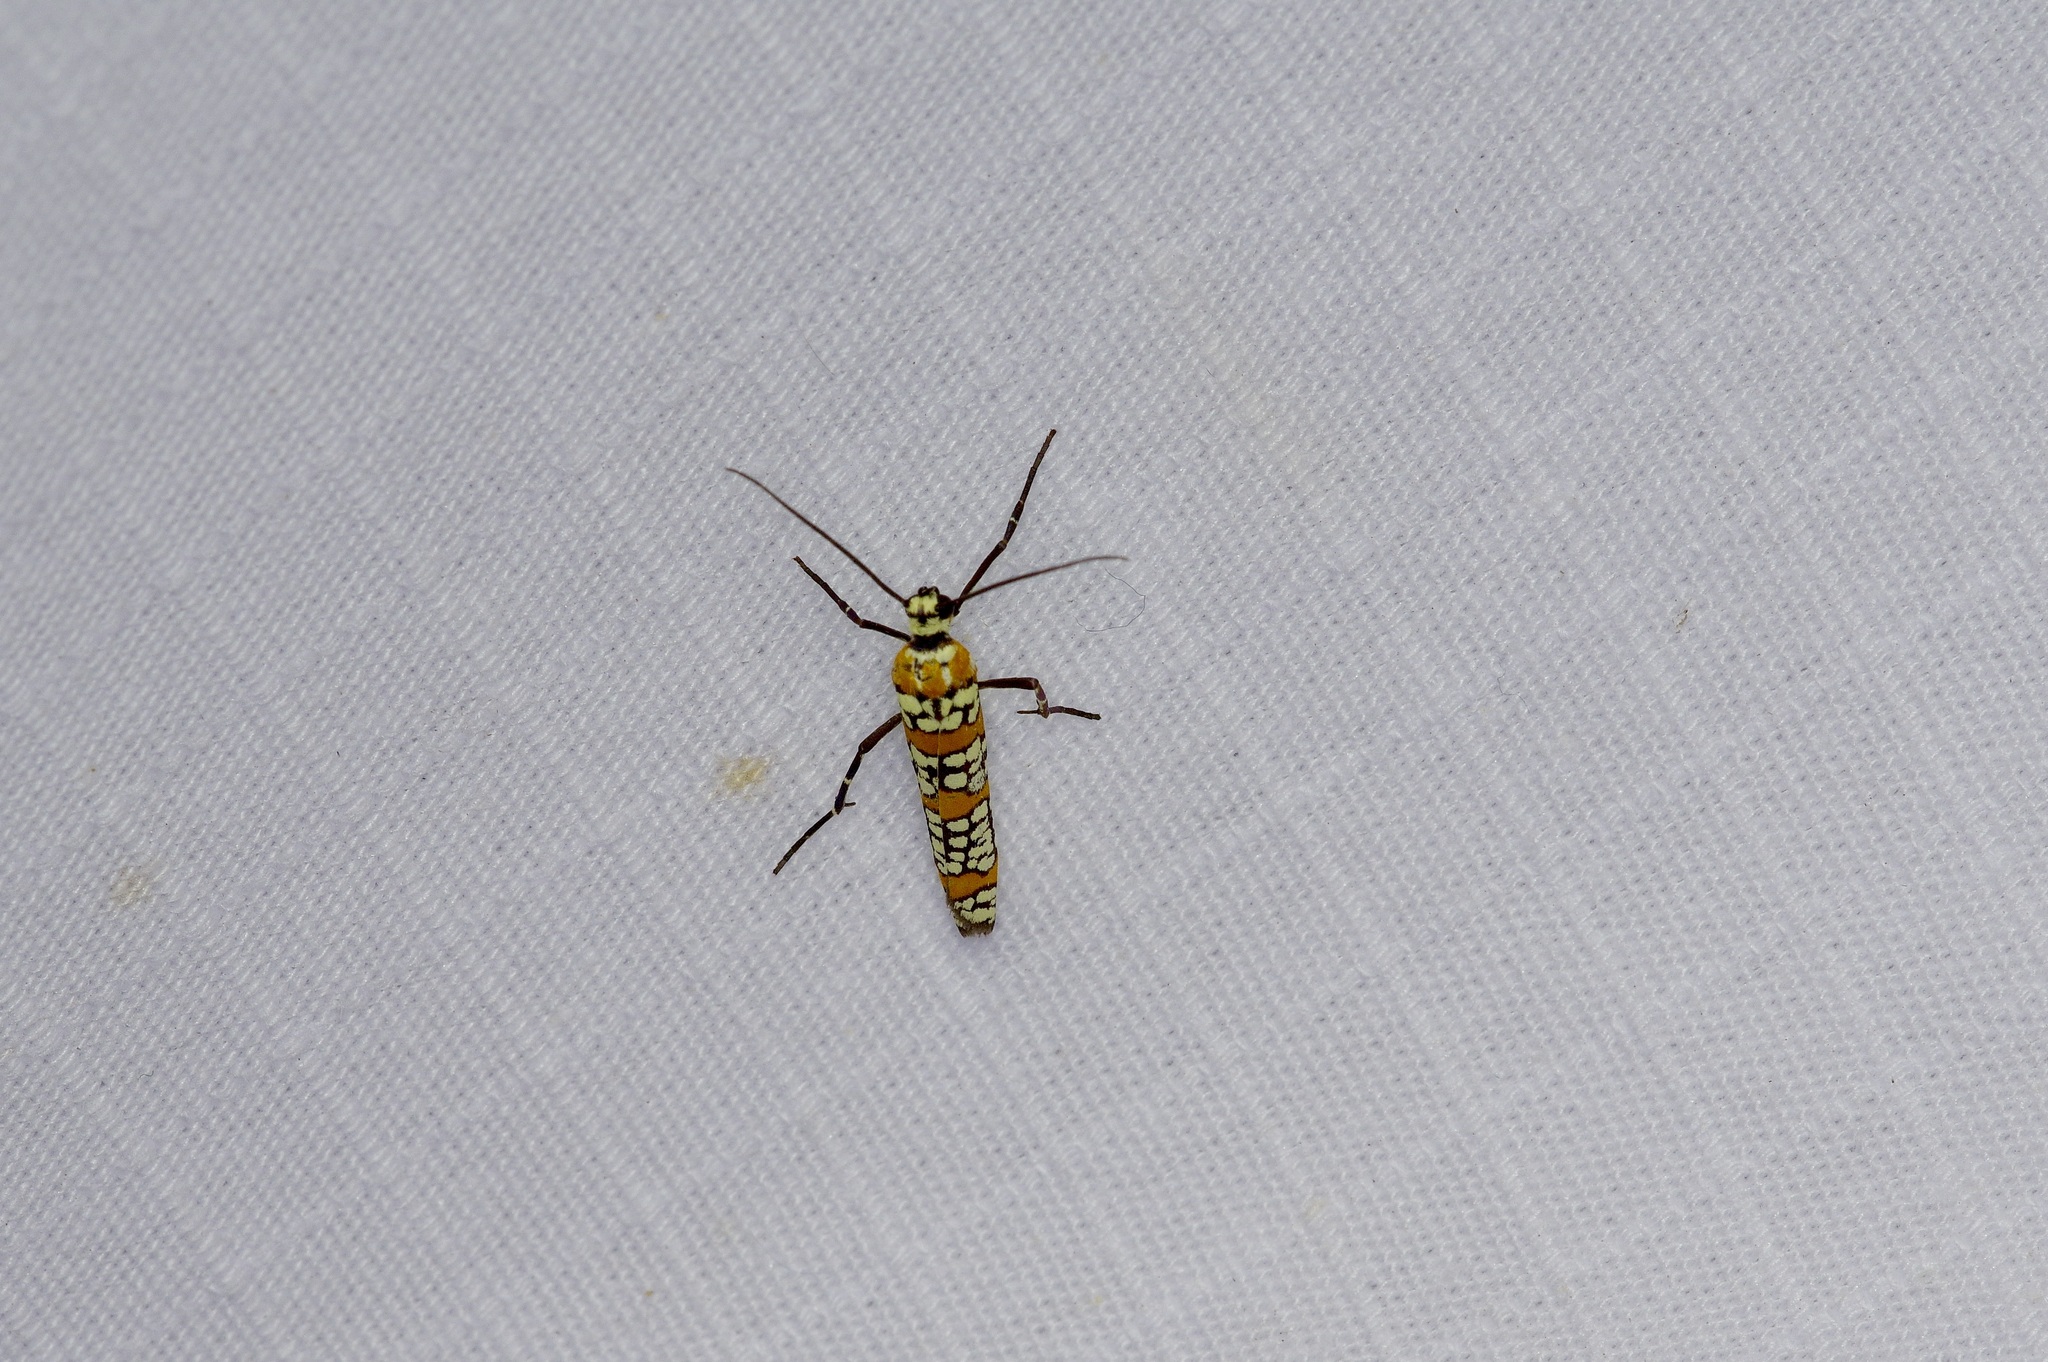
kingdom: Animalia
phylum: Arthropoda
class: Insecta
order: Lepidoptera
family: Attevidae
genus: Atteva
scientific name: Atteva punctella
